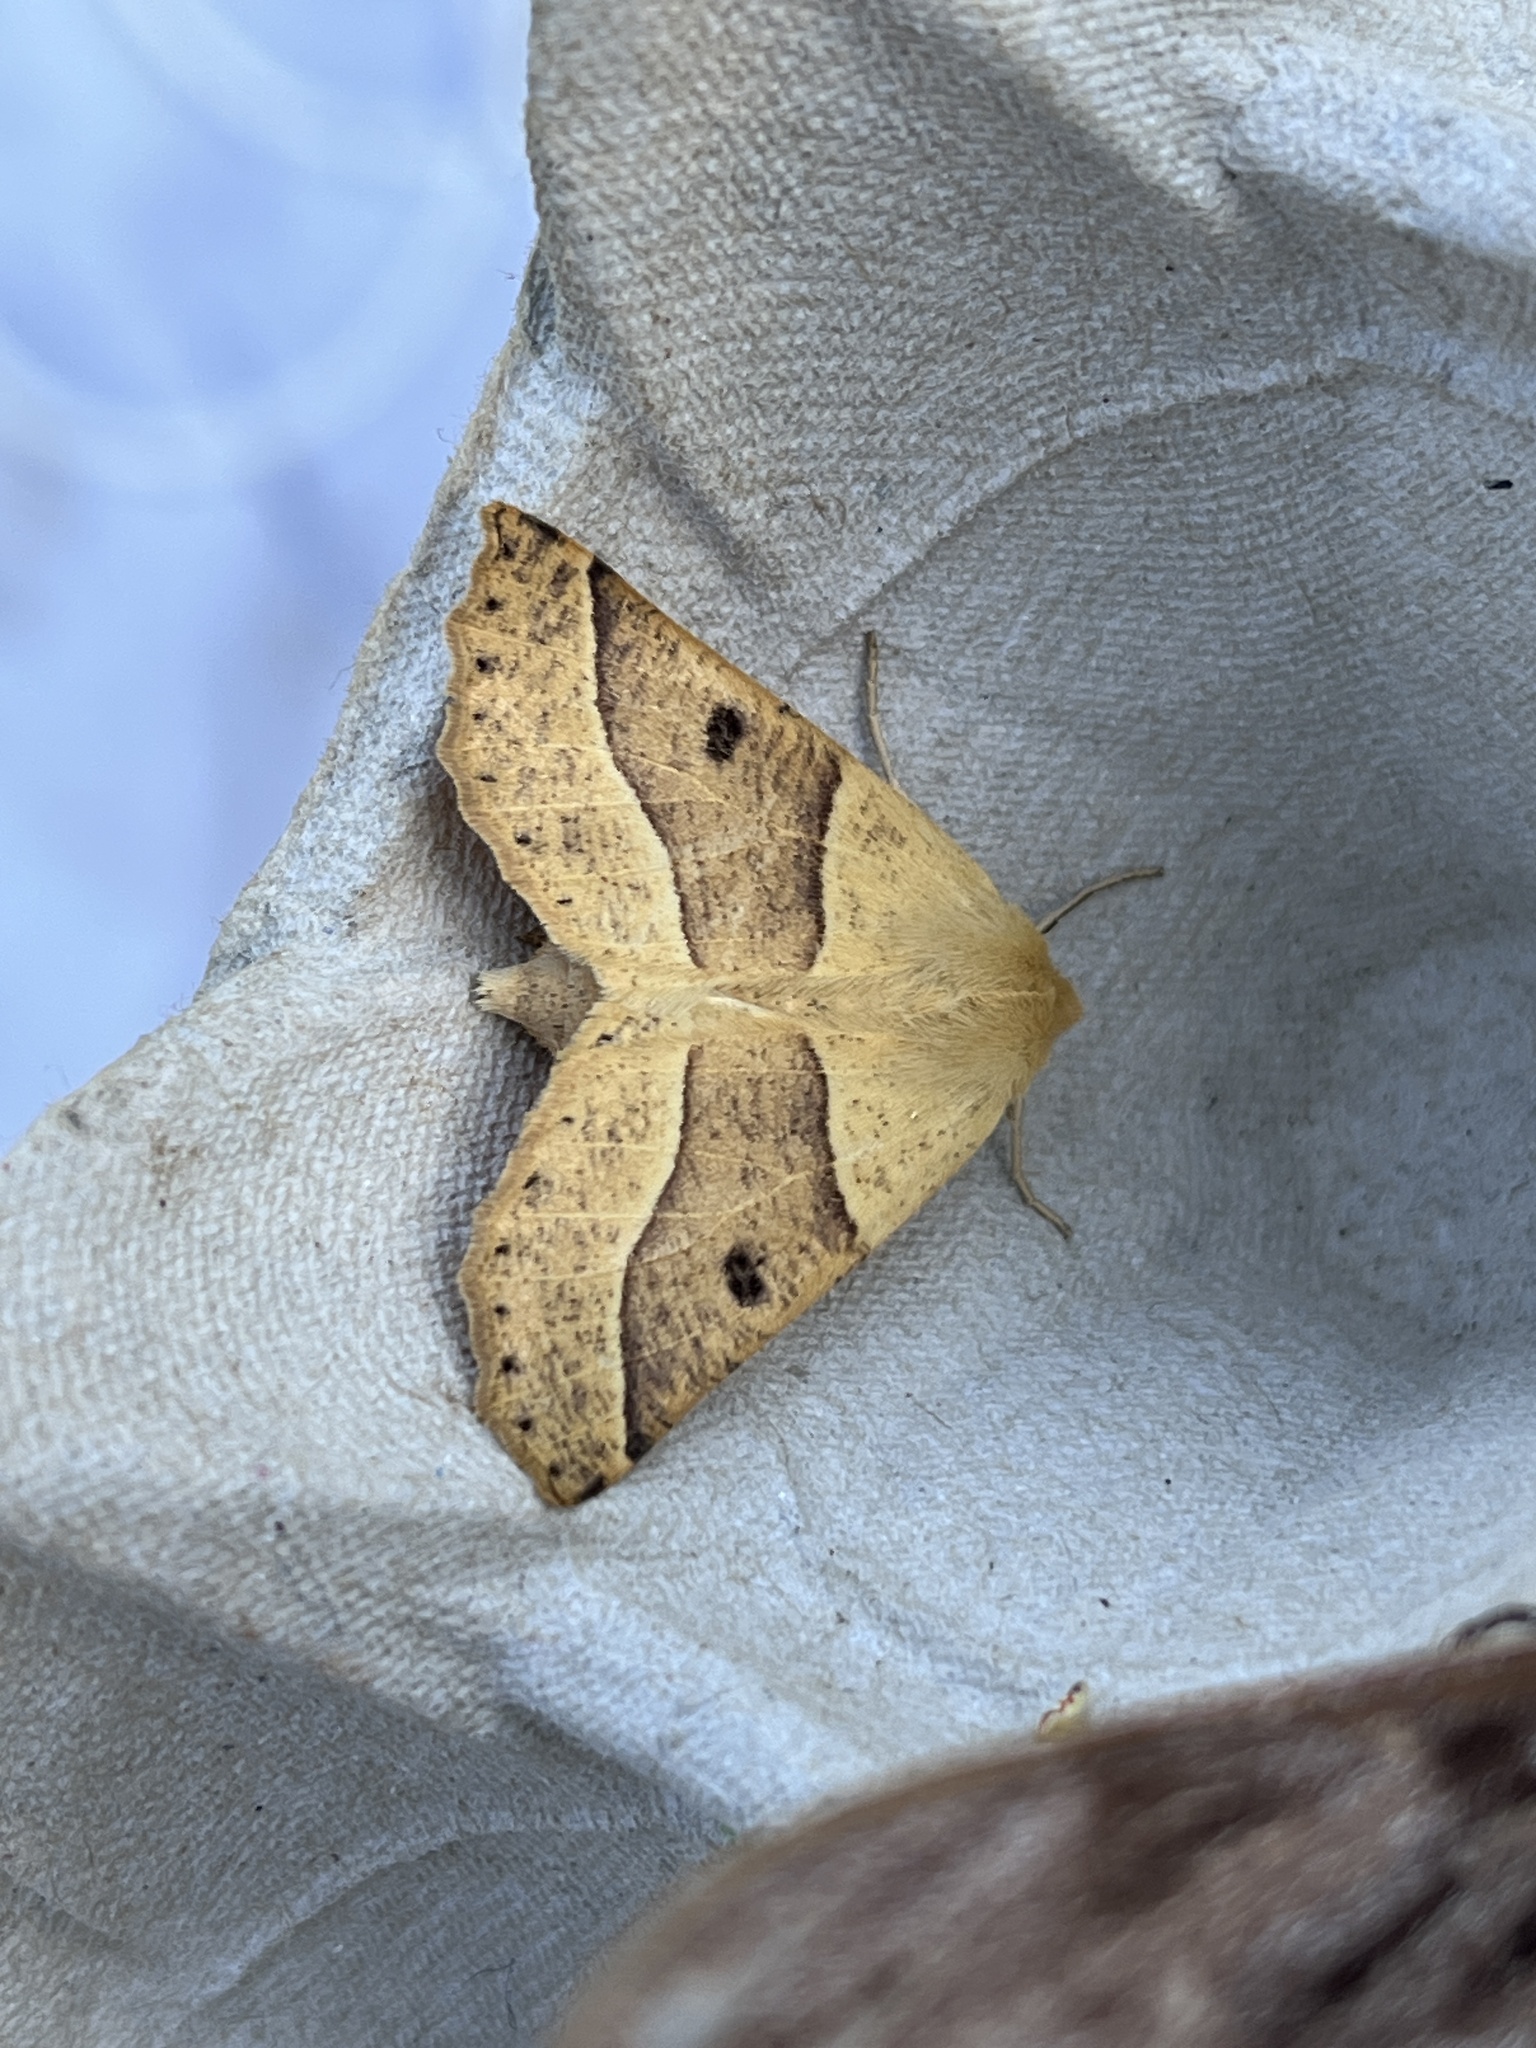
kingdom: Animalia
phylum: Arthropoda
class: Insecta
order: Lepidoptera
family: Geometridae
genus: Crocallis
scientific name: Crocallis elinguaria
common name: Scalloped oak
